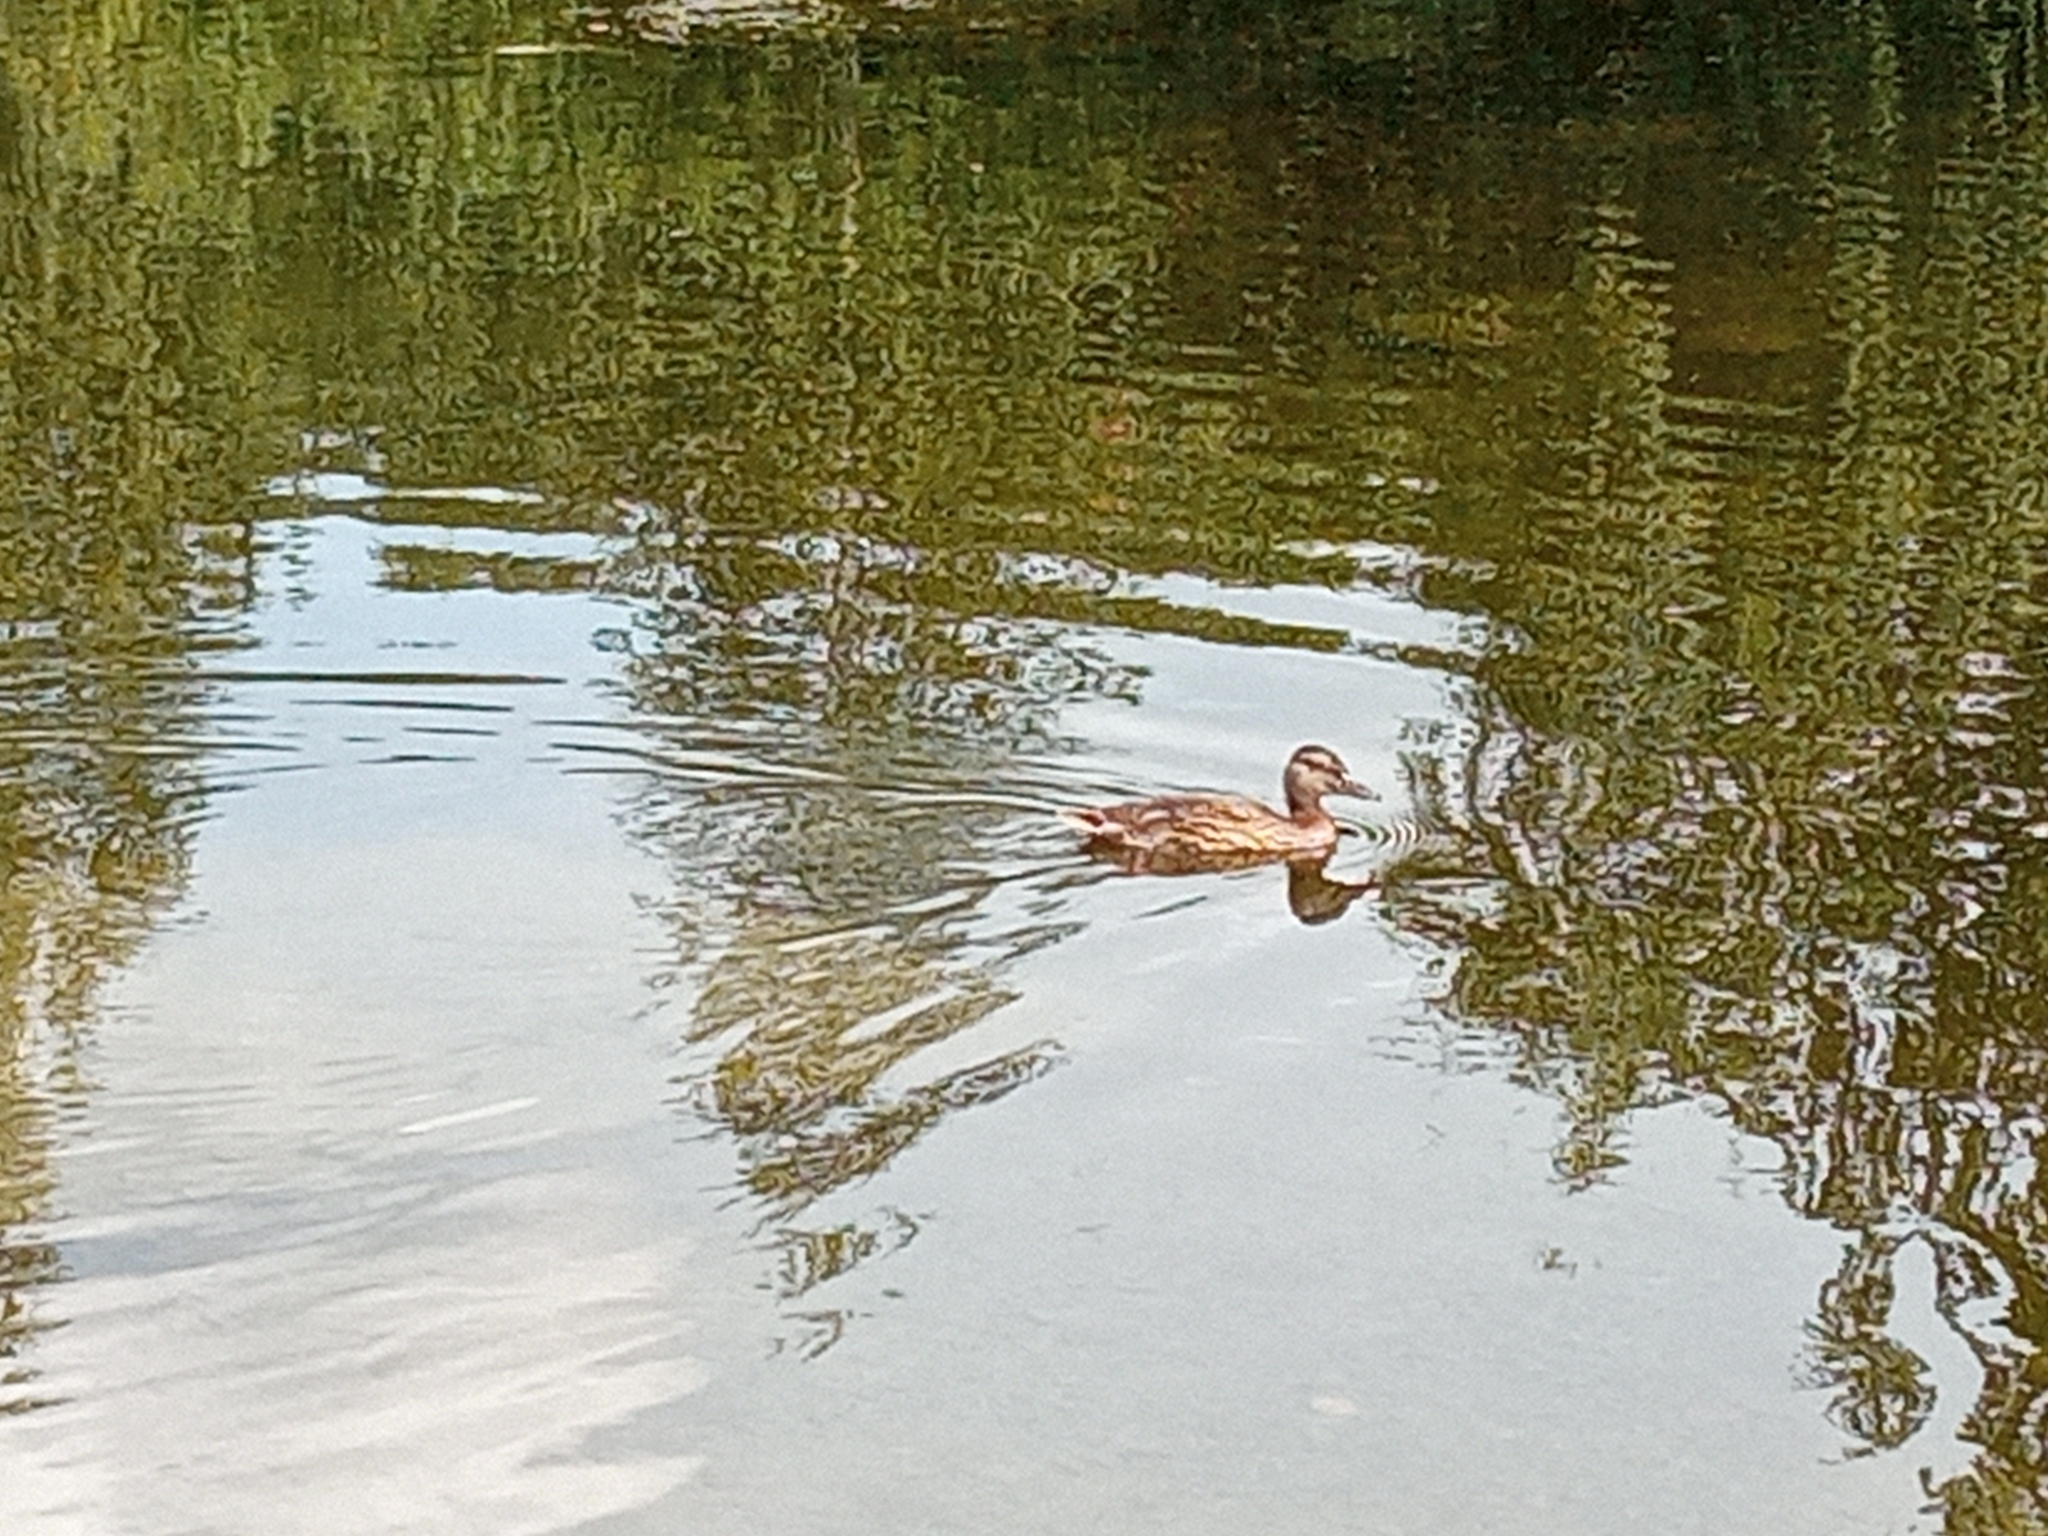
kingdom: Animalia
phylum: Chordata
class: Aves
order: Anseriformes
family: Anatidae
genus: Spatula
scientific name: Spatula querquedula
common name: Garganey
